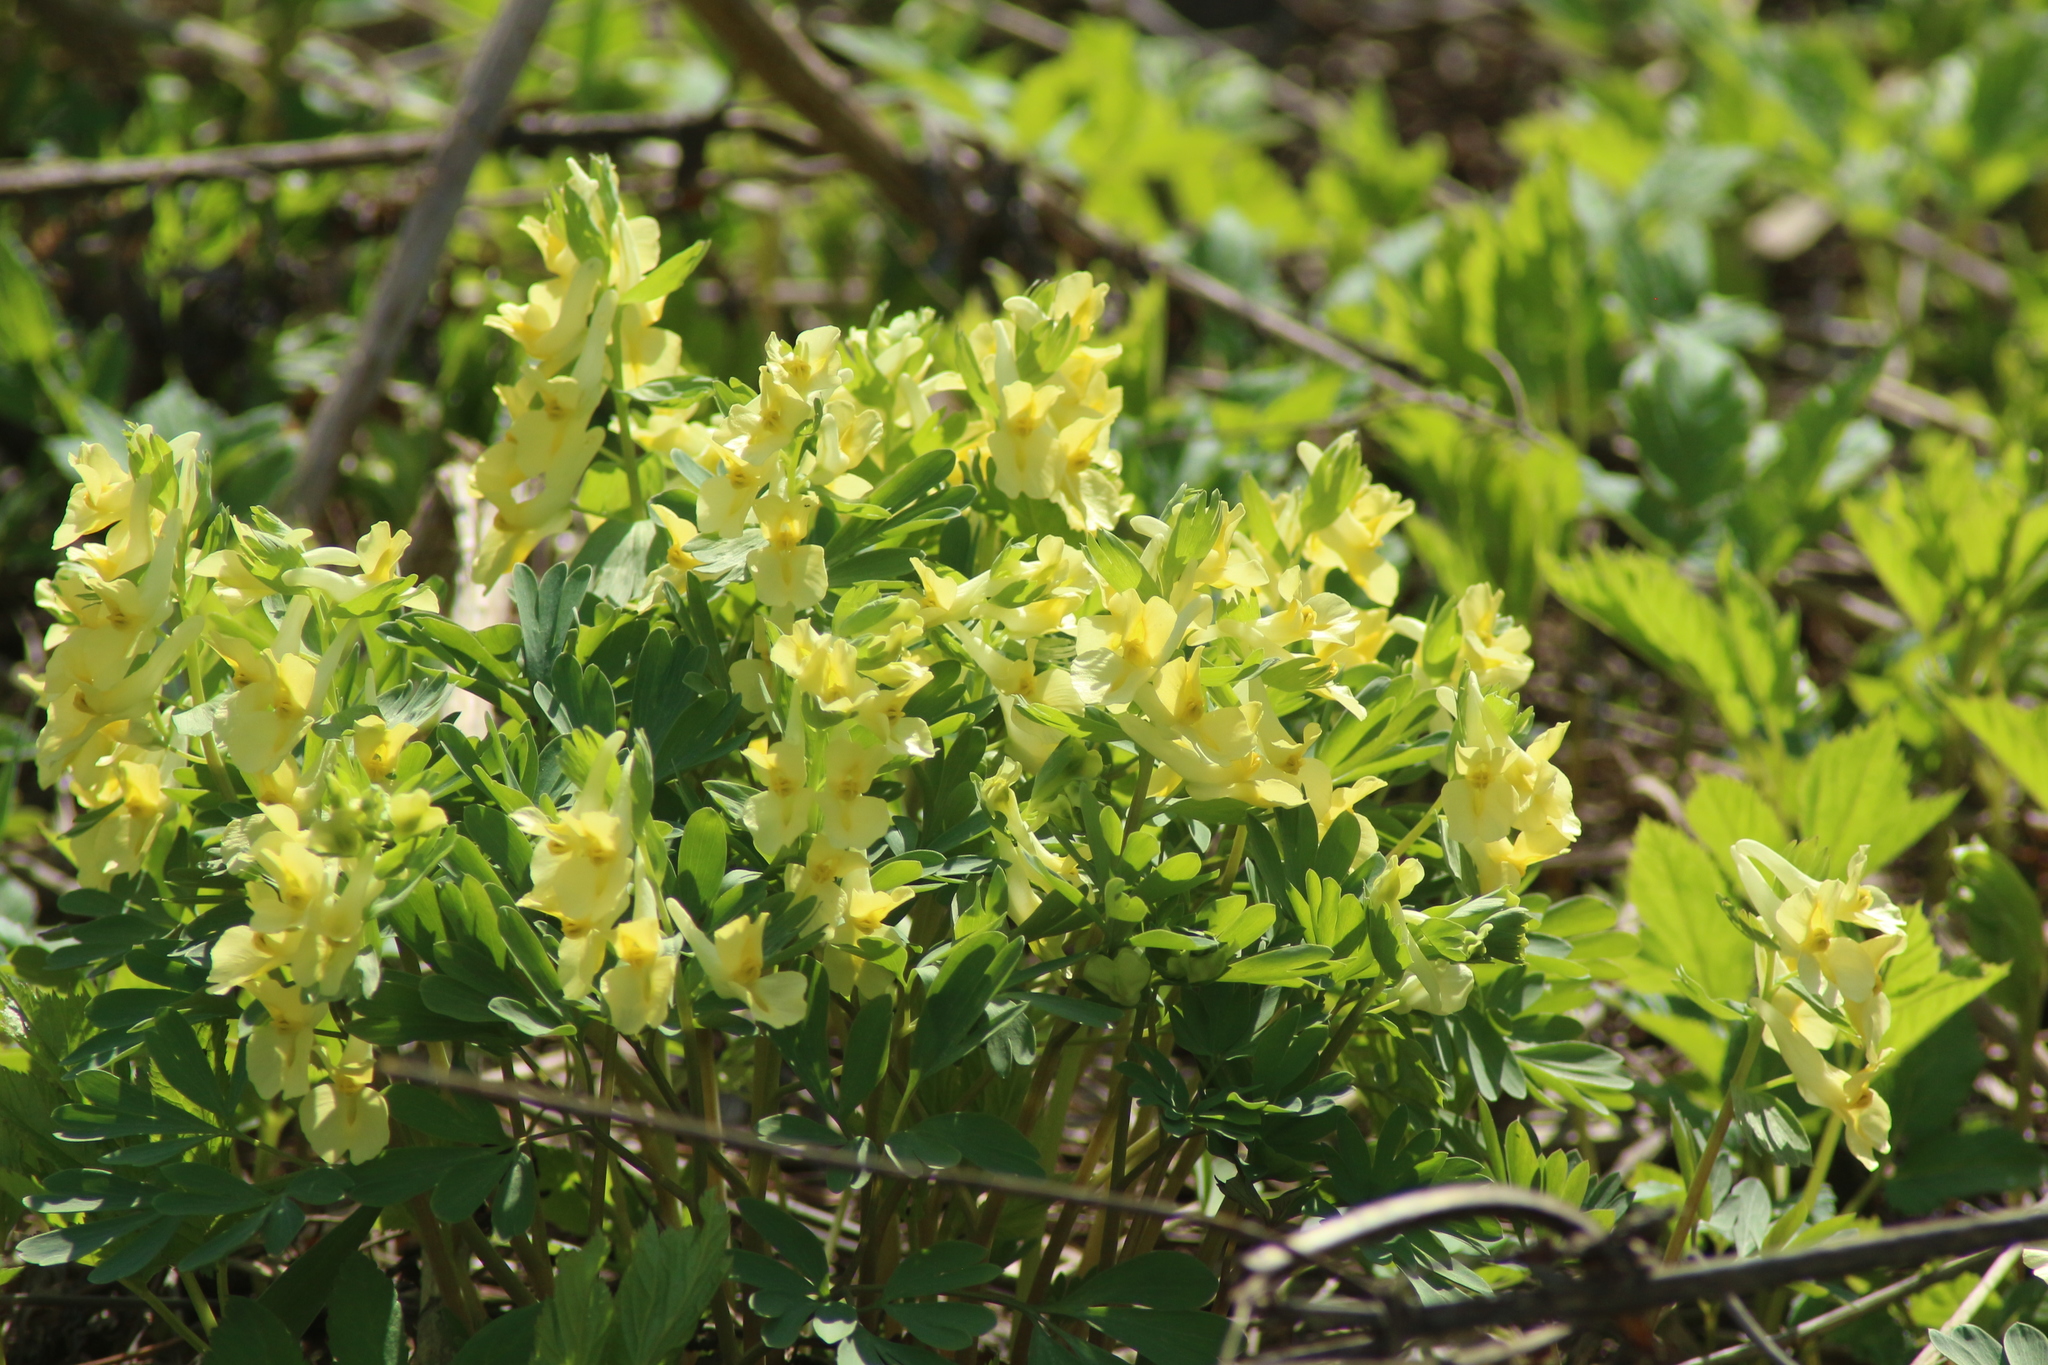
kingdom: Plantae
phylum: Tracheophyta
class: Magnoliopsida
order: Ranunculales
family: Papaveraceae
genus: Corydalis
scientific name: Corydalis bracteata
